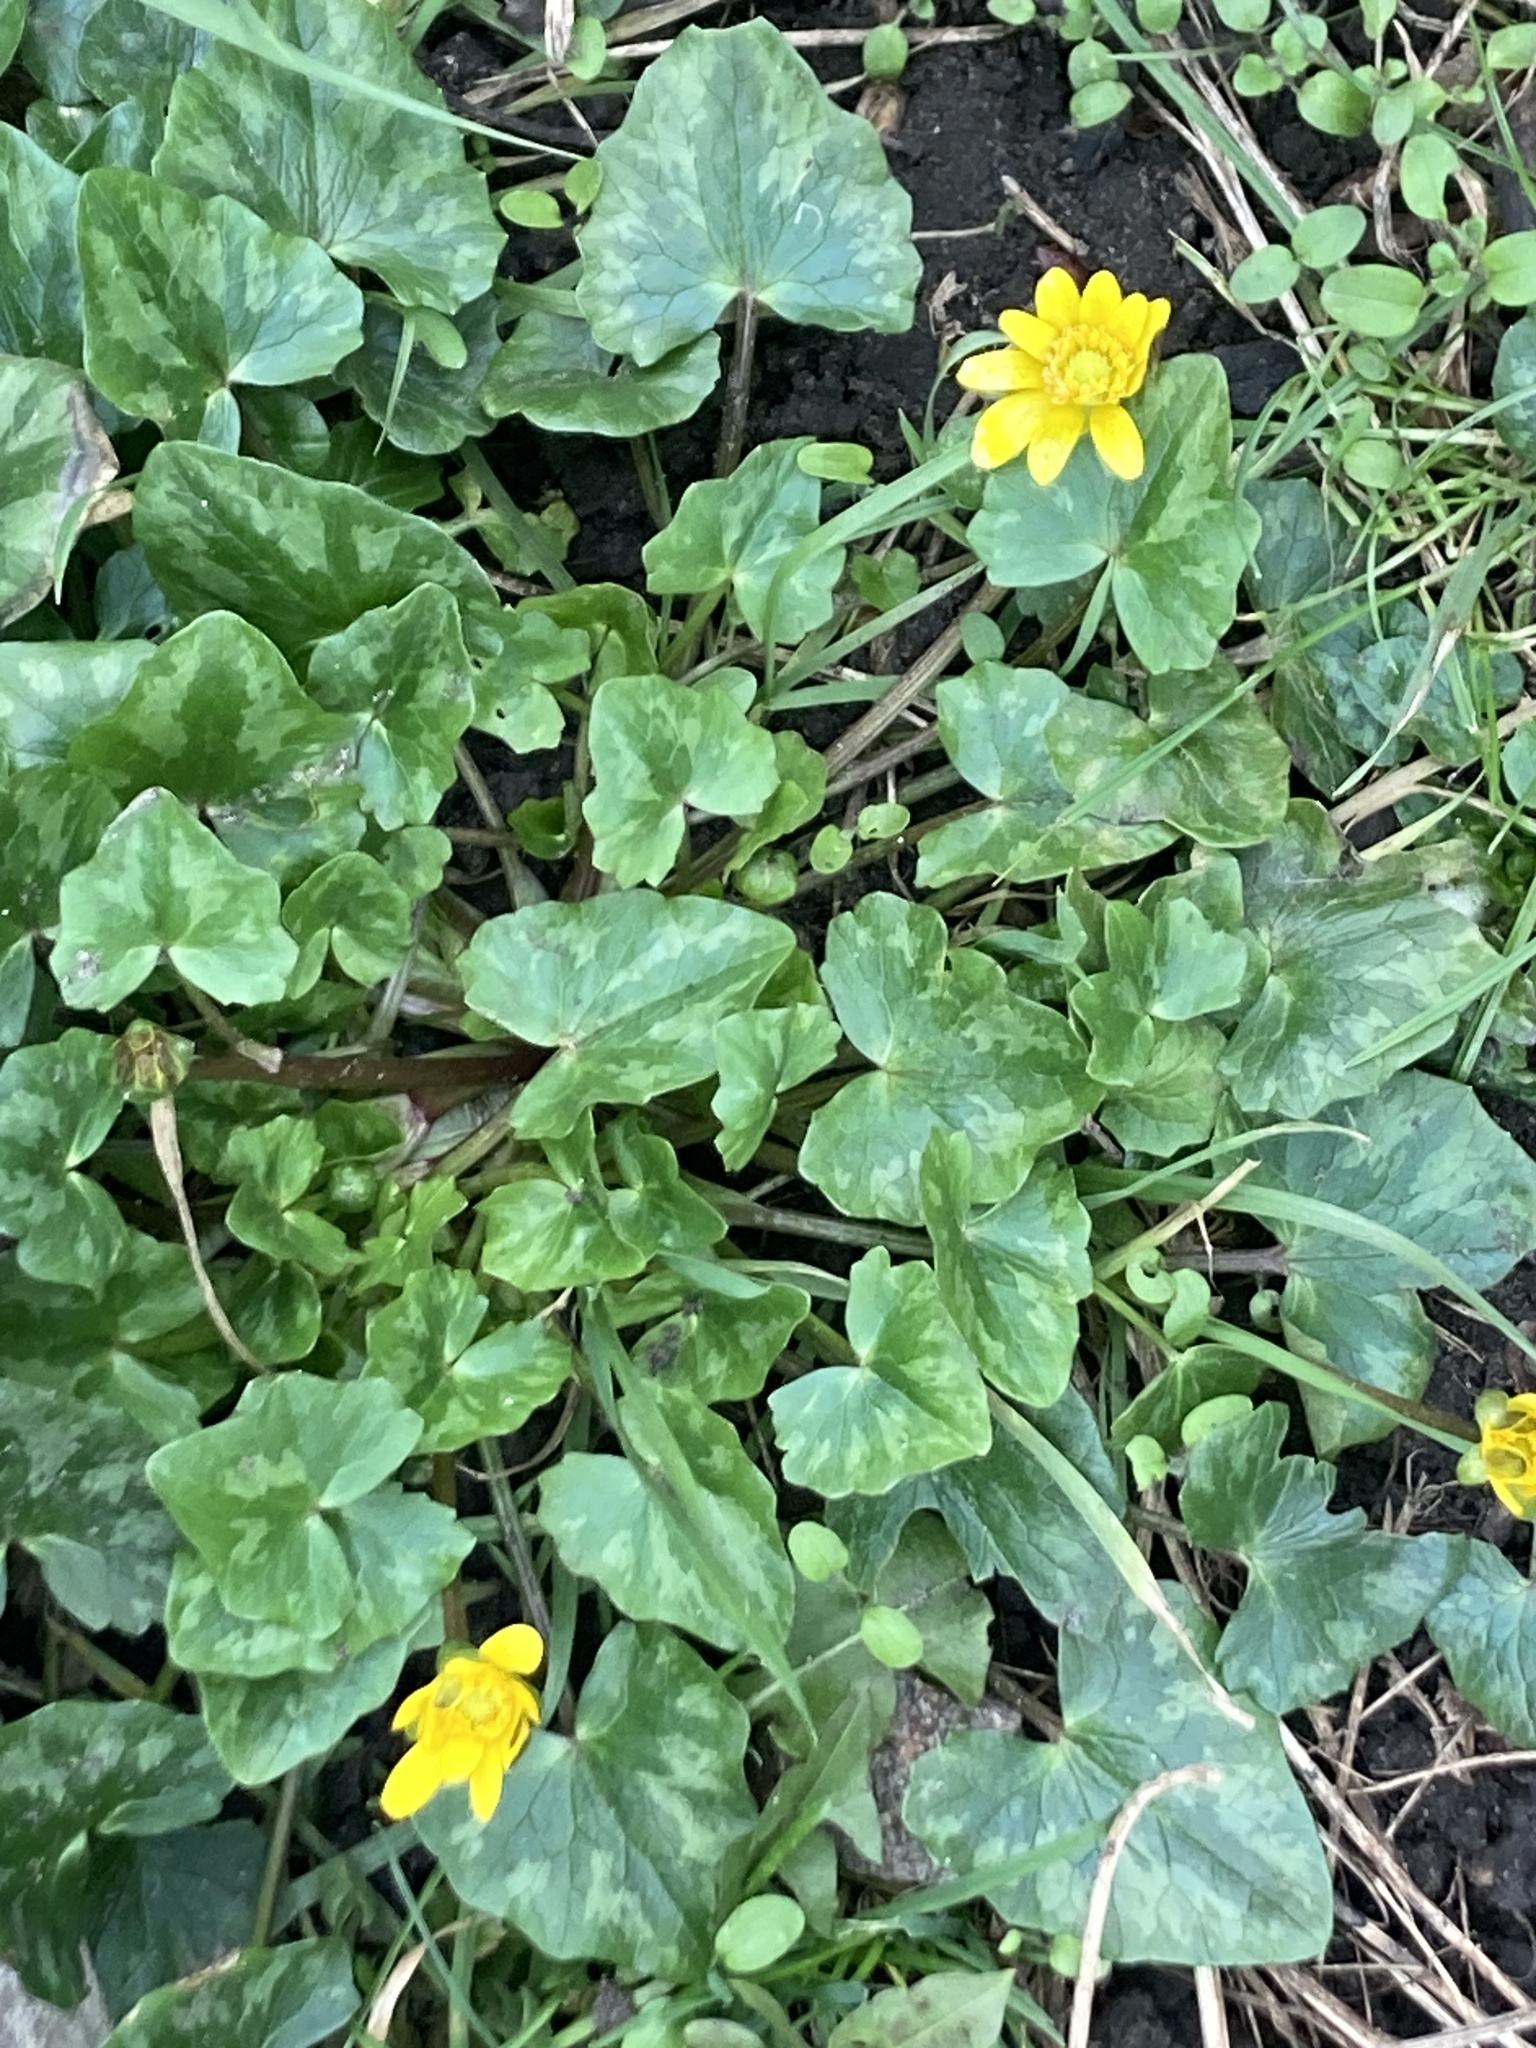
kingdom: Plantae
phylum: Tracheophyta
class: Magnoliopsida
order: Ranunculales
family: Ranunculaceae
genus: Ficaria
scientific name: Ficaria verna
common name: Lesser celandine
